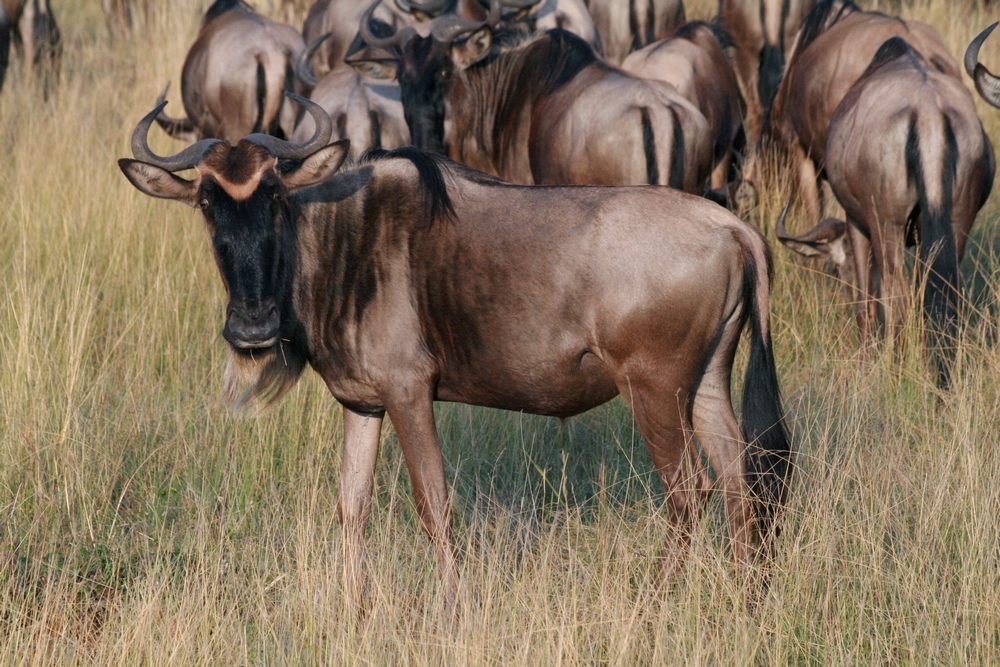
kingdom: Animalia
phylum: Chordata
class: Mammalia
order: Artiodactyla
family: Bovidae
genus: Connochaetes
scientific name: Connochaetes taurinus
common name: Blue wildebeest
